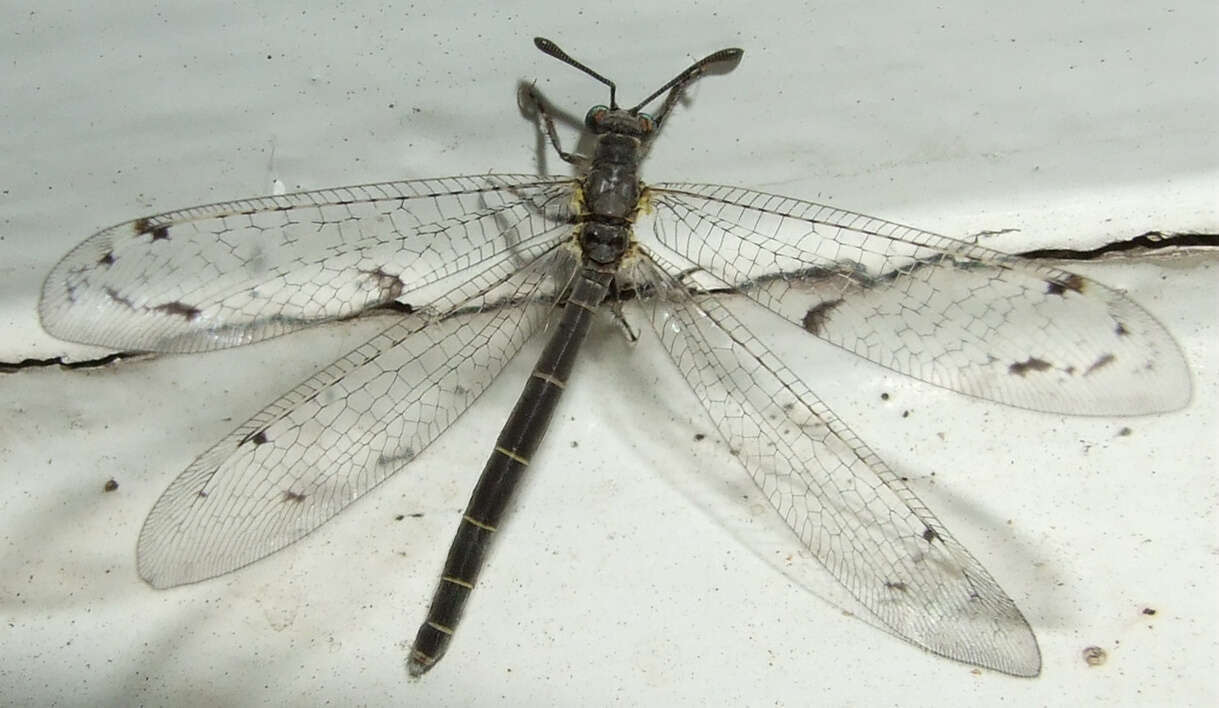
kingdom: Animalia
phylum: Arthropoda
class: Insecta
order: Neuroptera
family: Myrmeleontidae
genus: Bandidus
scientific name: Bandidus canifrons
